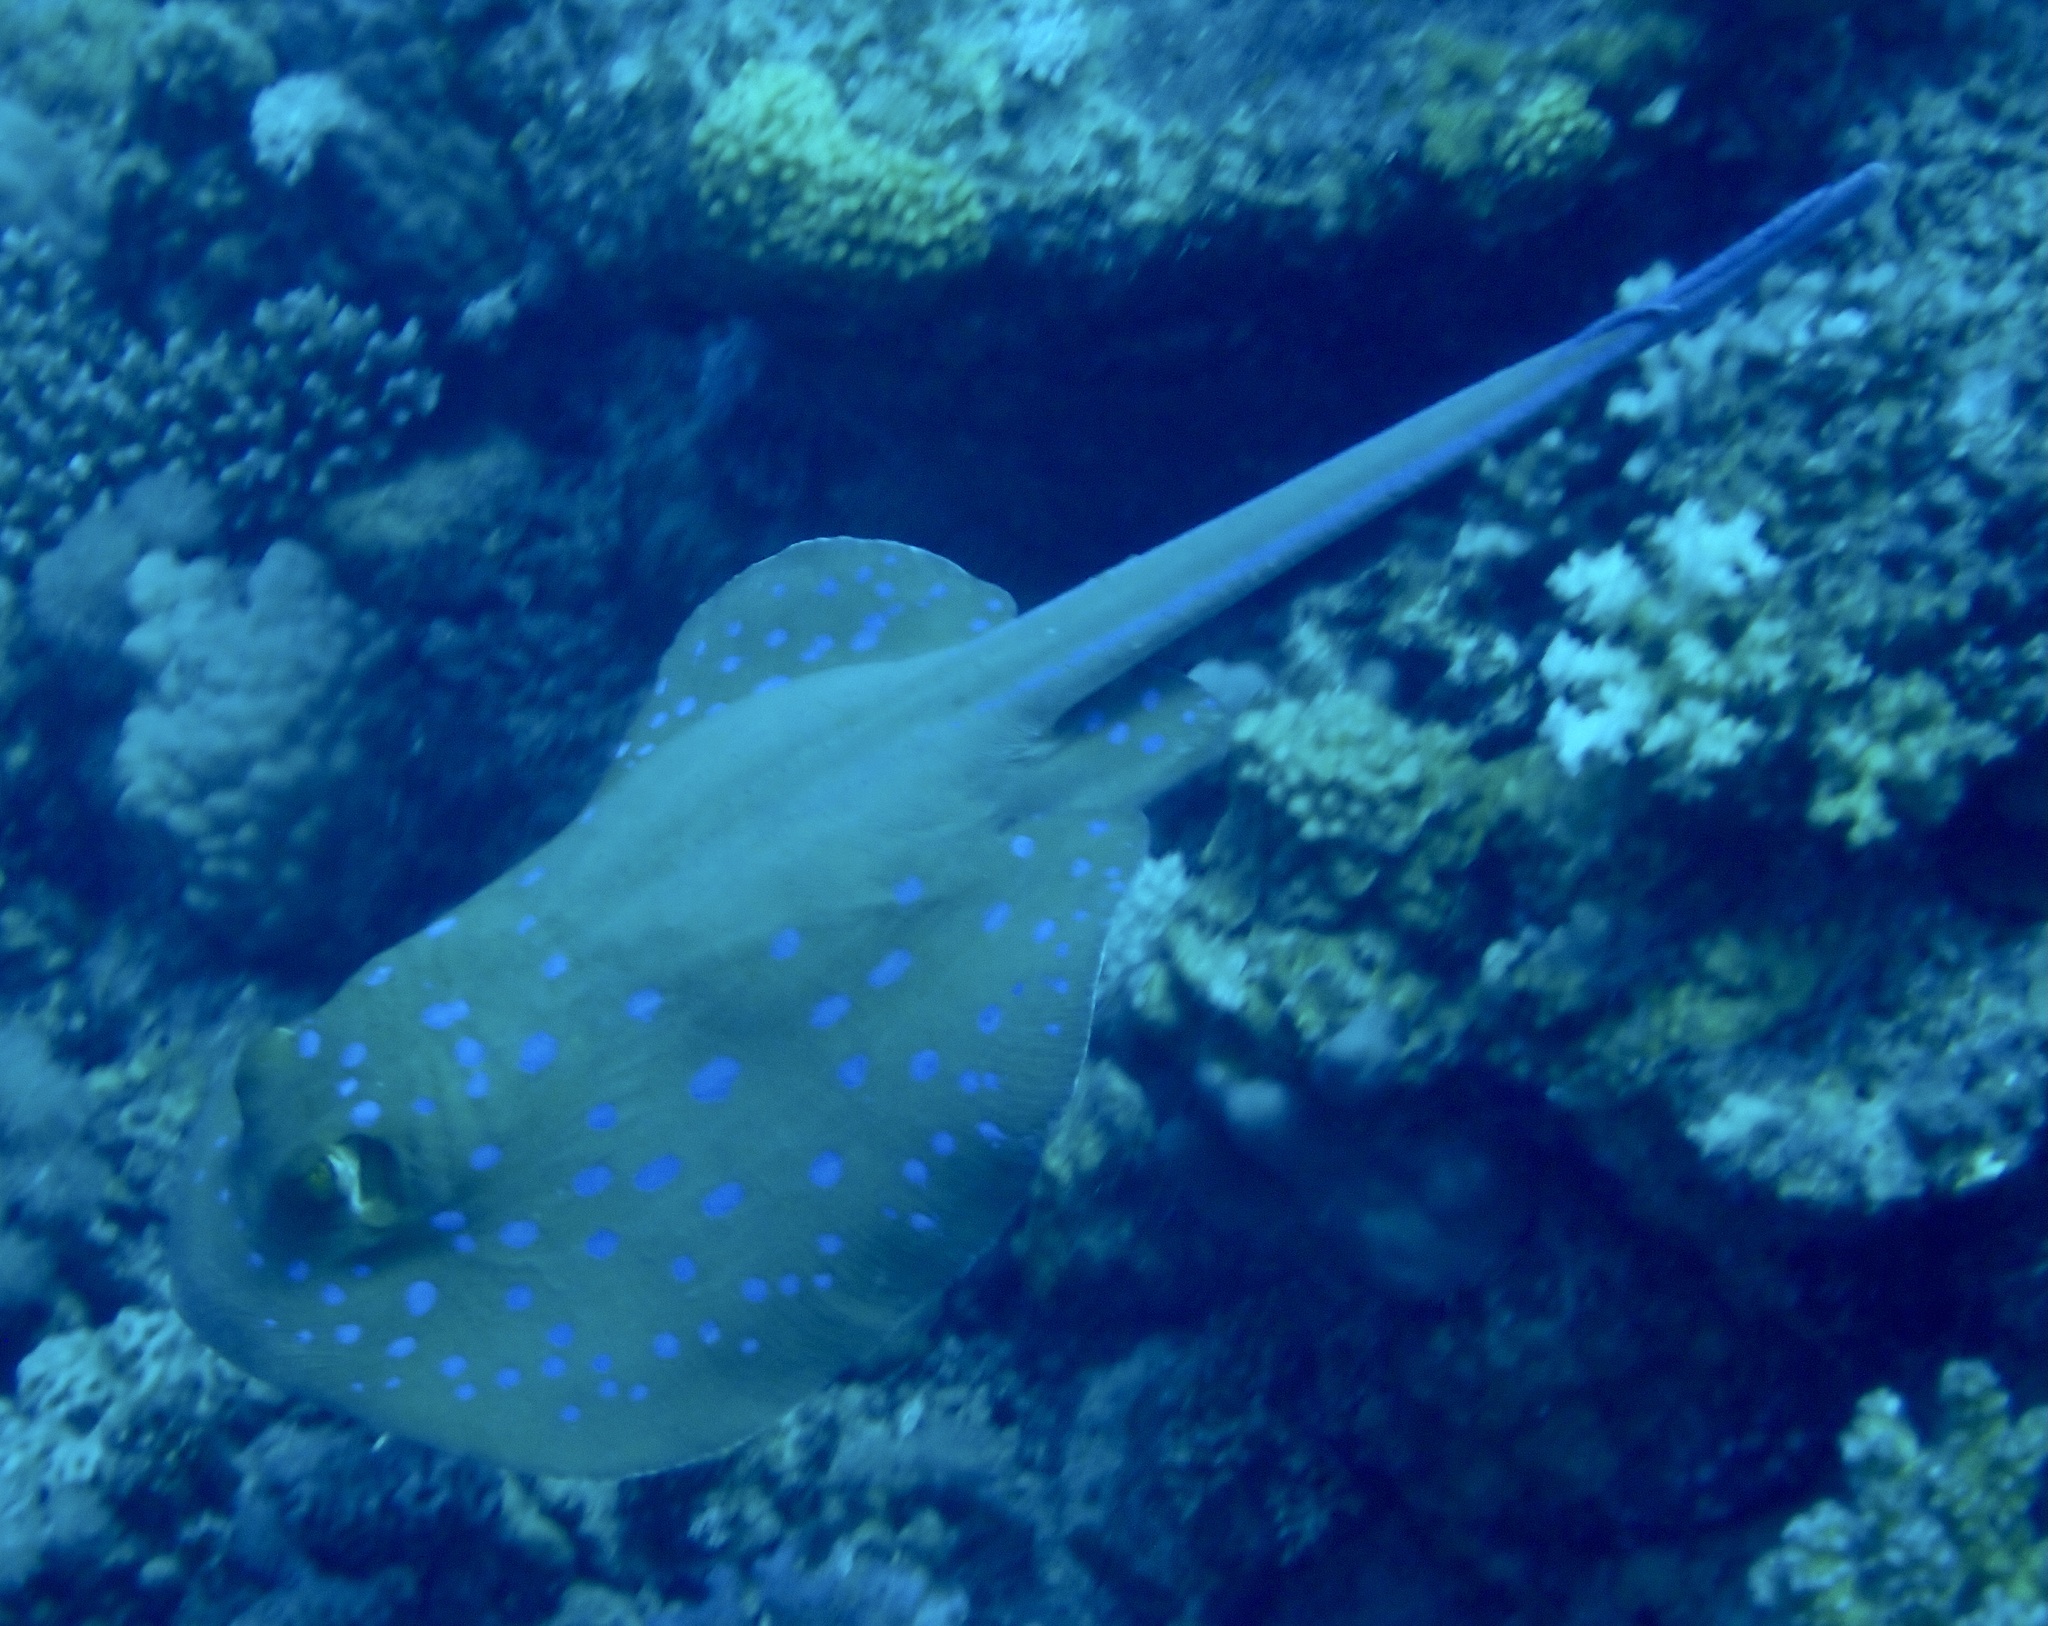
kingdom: Animalia
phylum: Chordata
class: Elasmobranchii
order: Myliobatiformes
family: Dasyatidae
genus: Taeniura
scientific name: Taeniura lymma
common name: Bluespotted ribbontail ray
